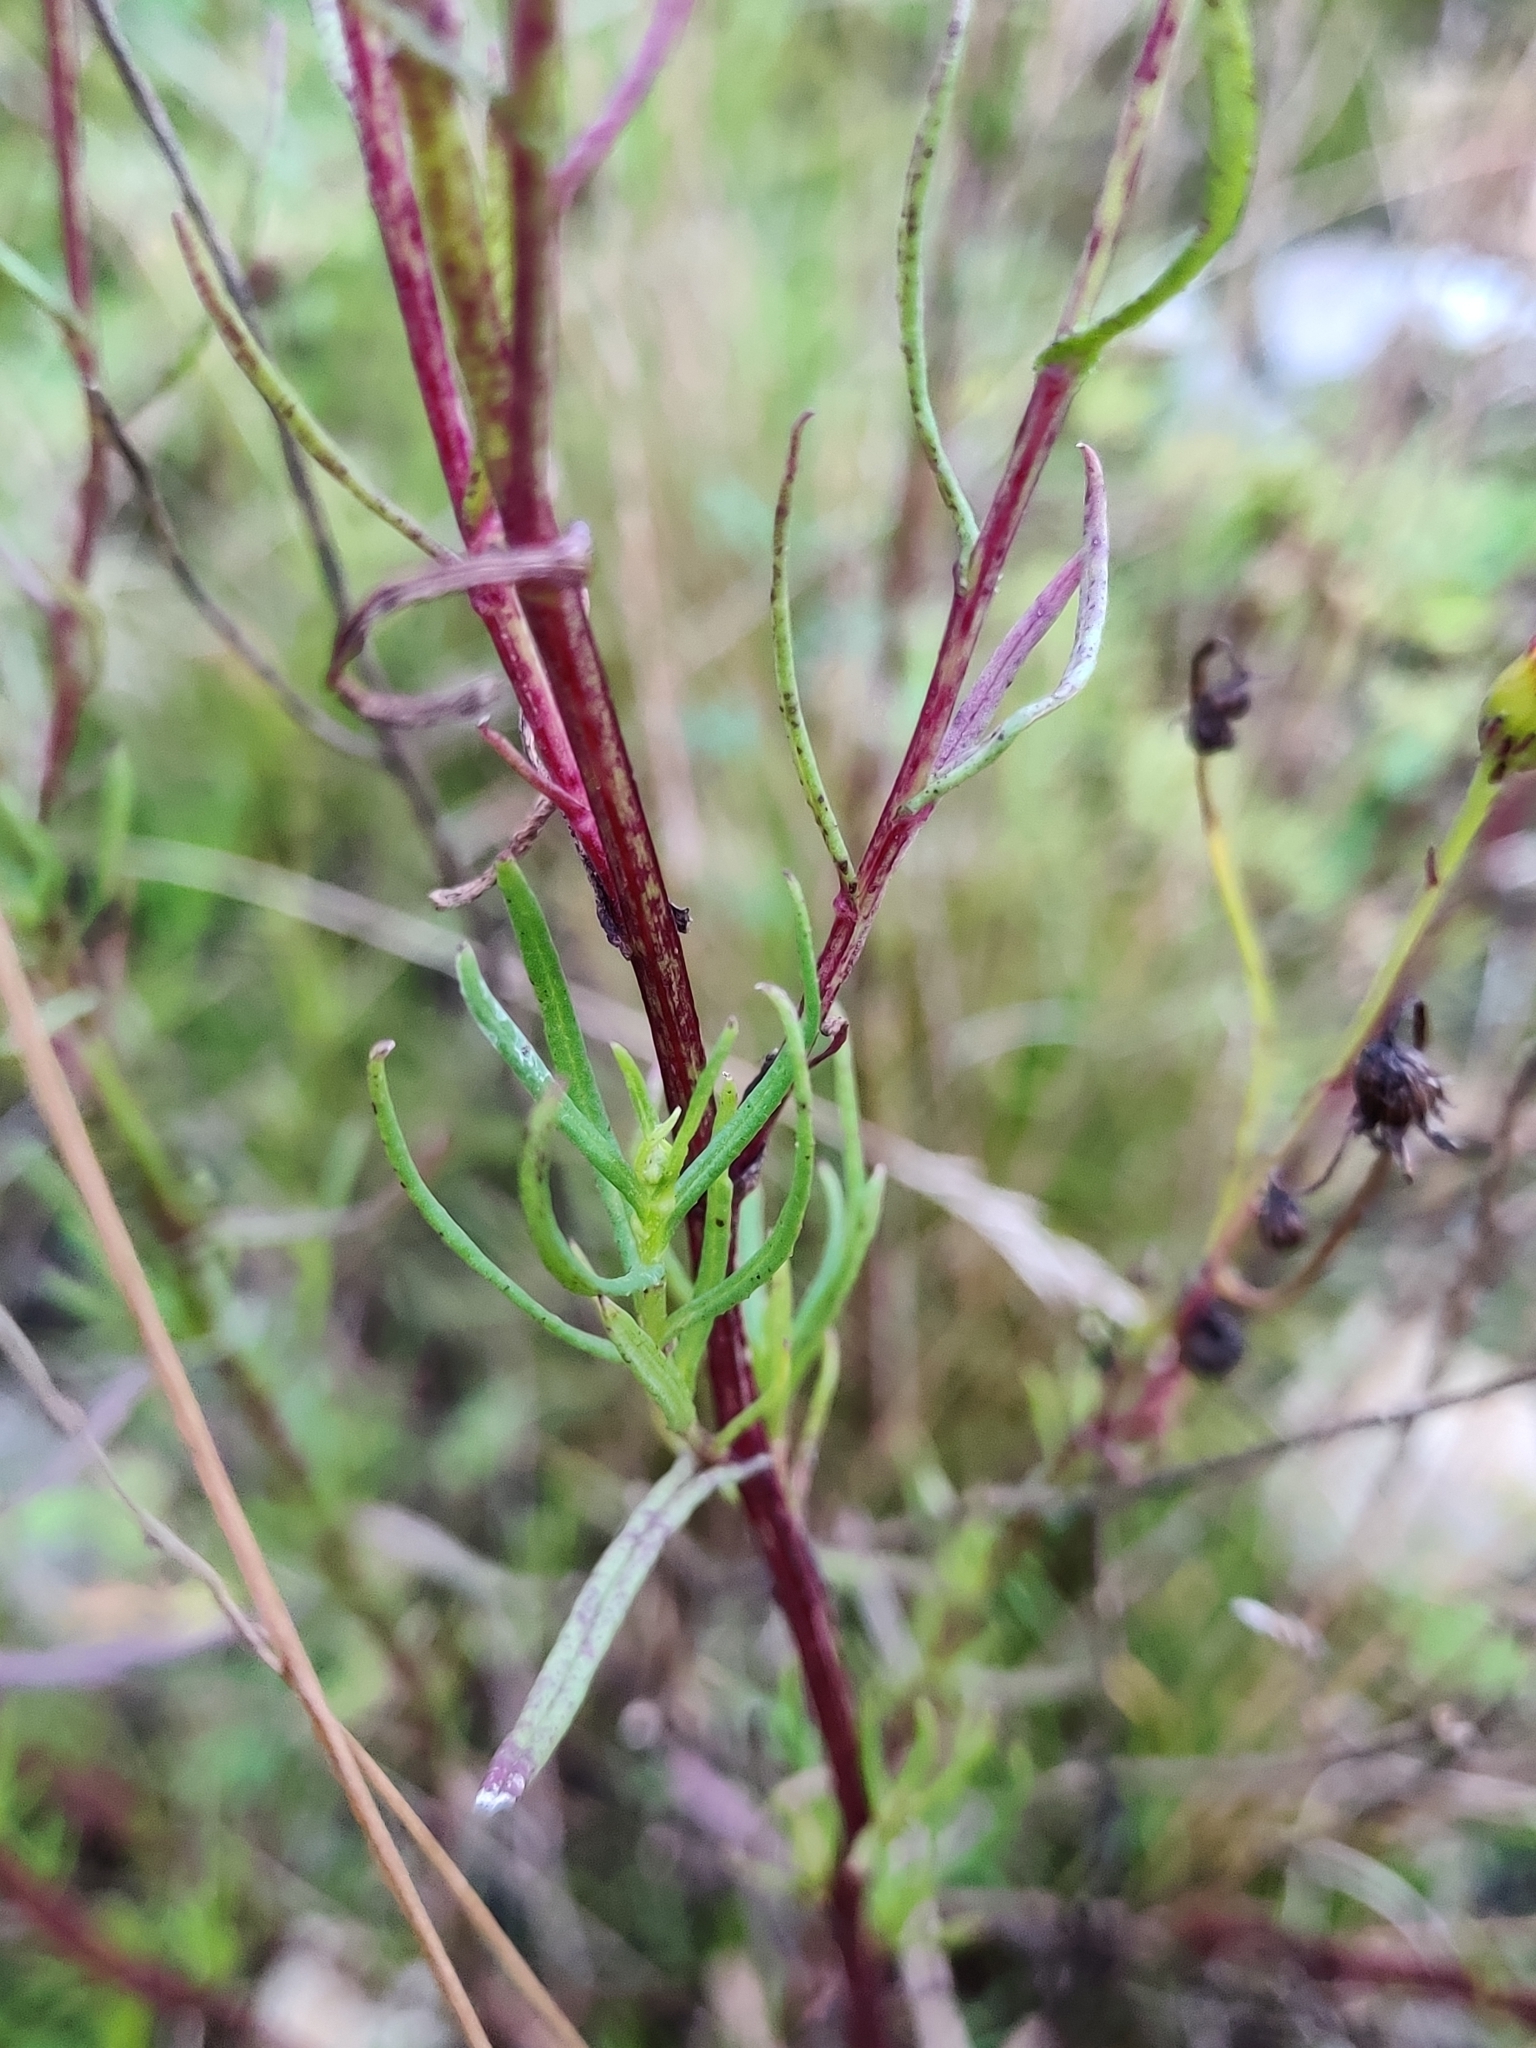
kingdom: Plantae
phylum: Tracheophyta
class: Magnoliopsida
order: Asterales
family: Asteraceae
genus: Senecio
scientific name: Senecio inaequidens
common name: Narrow-leaved ragwort
